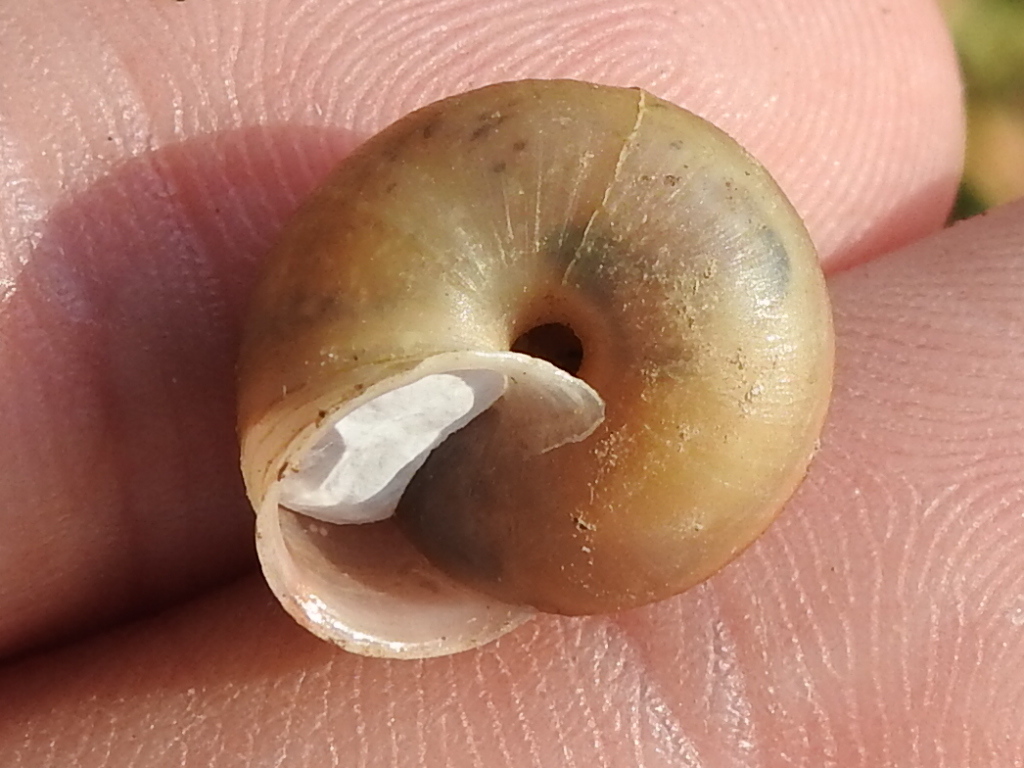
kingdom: Animalia
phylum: Mollusca
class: Gastropoda
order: Stylommatophora
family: Camaenidae
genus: Bradybaena
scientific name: Bradybaena similaris
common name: Asian trampsnail
